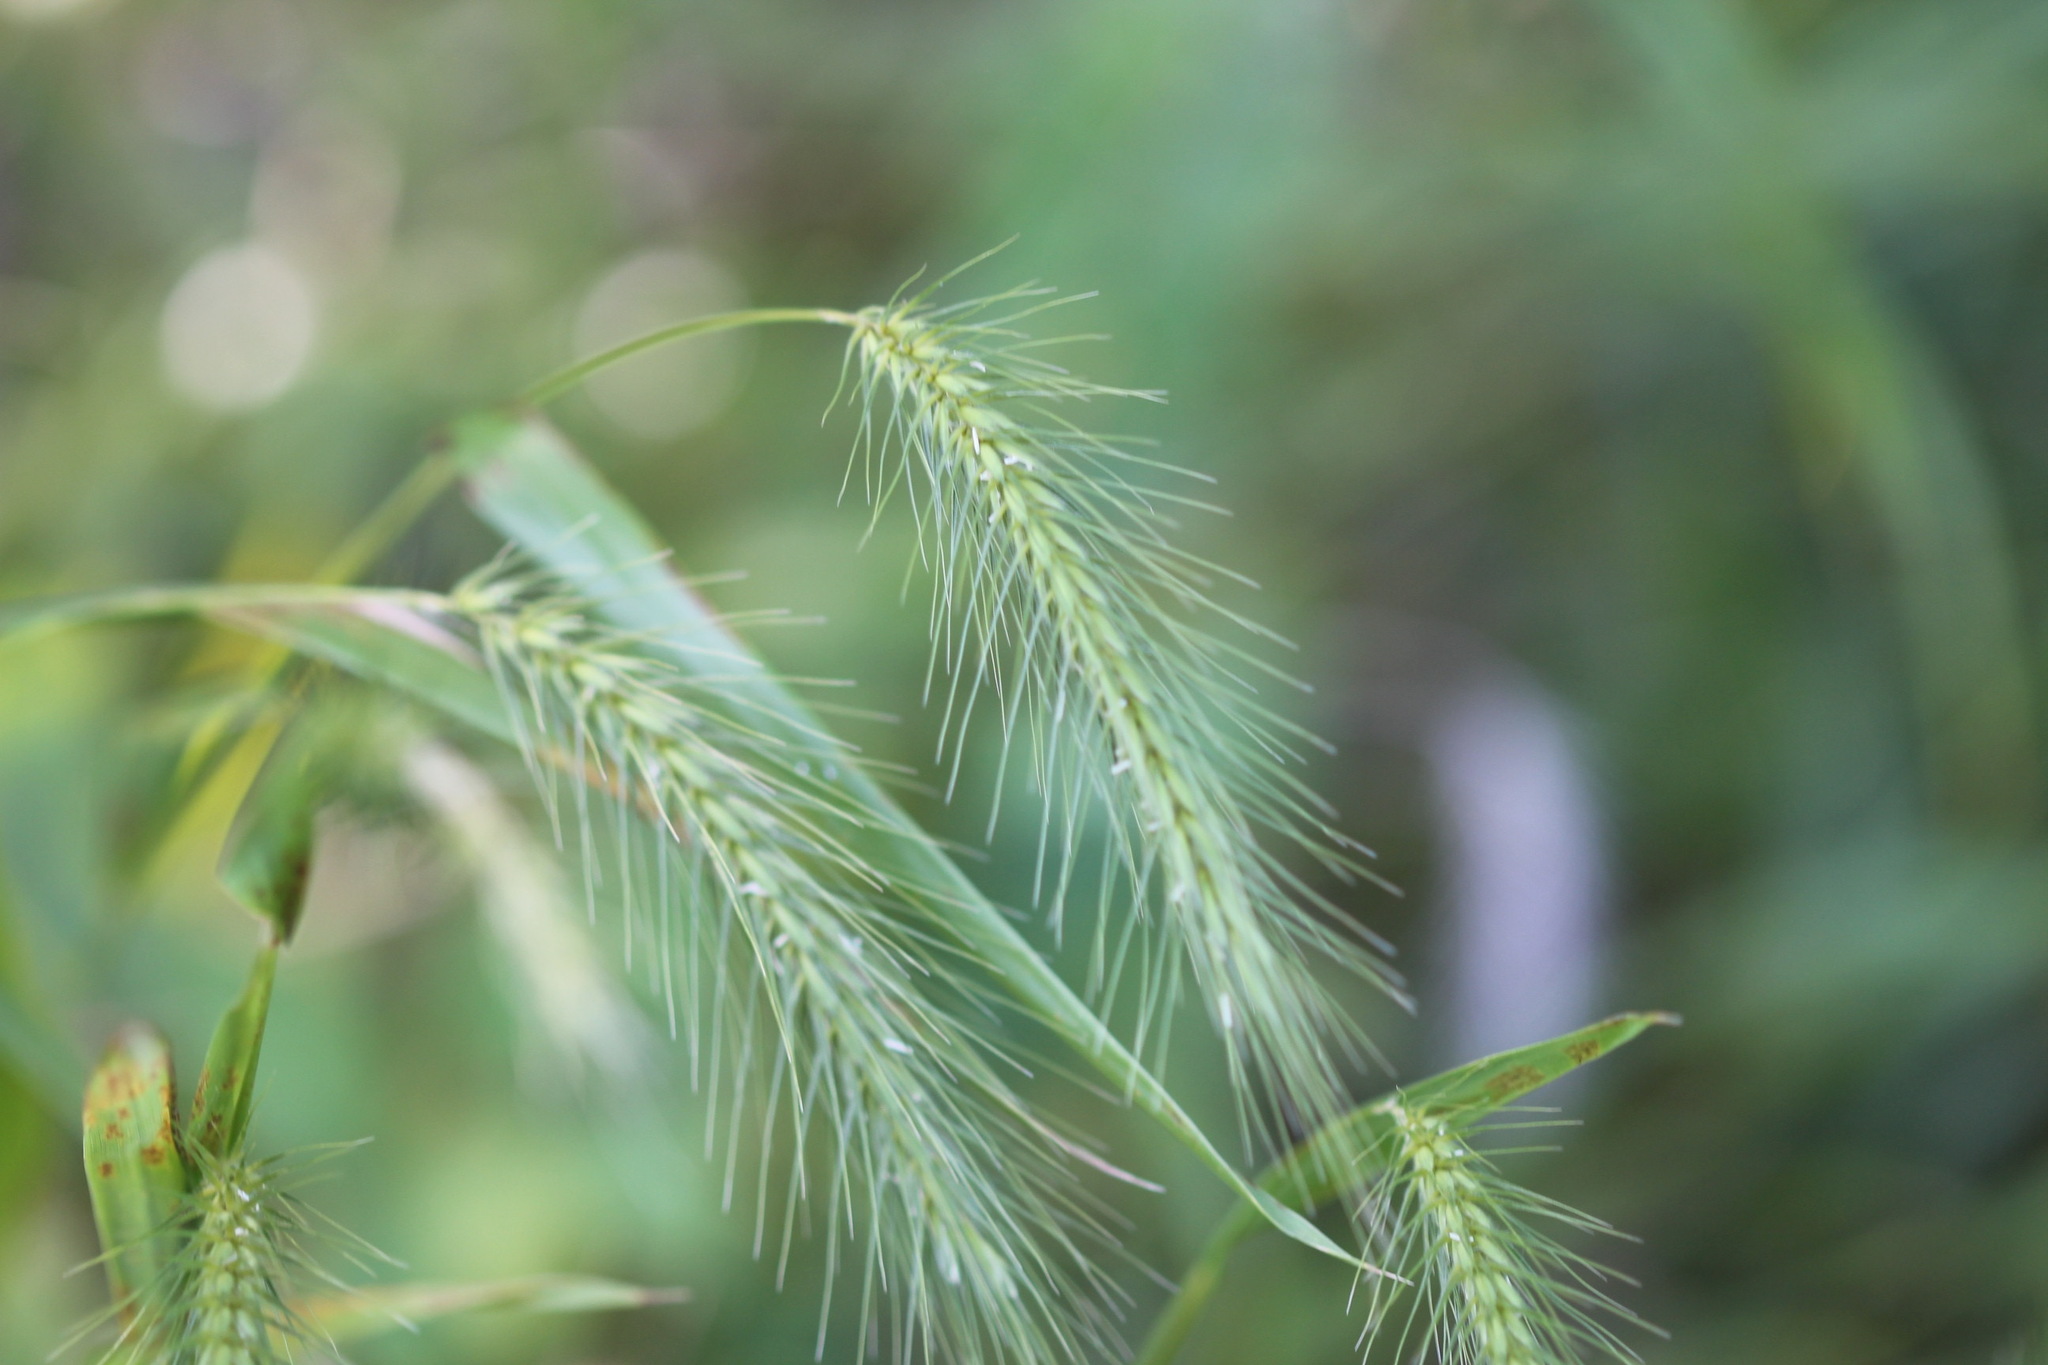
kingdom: Plantae
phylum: Tracheophyta
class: Liliopsida
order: Poales
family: Poaceae
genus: Elymus
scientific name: Elymus villosus
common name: Downy wild rye
